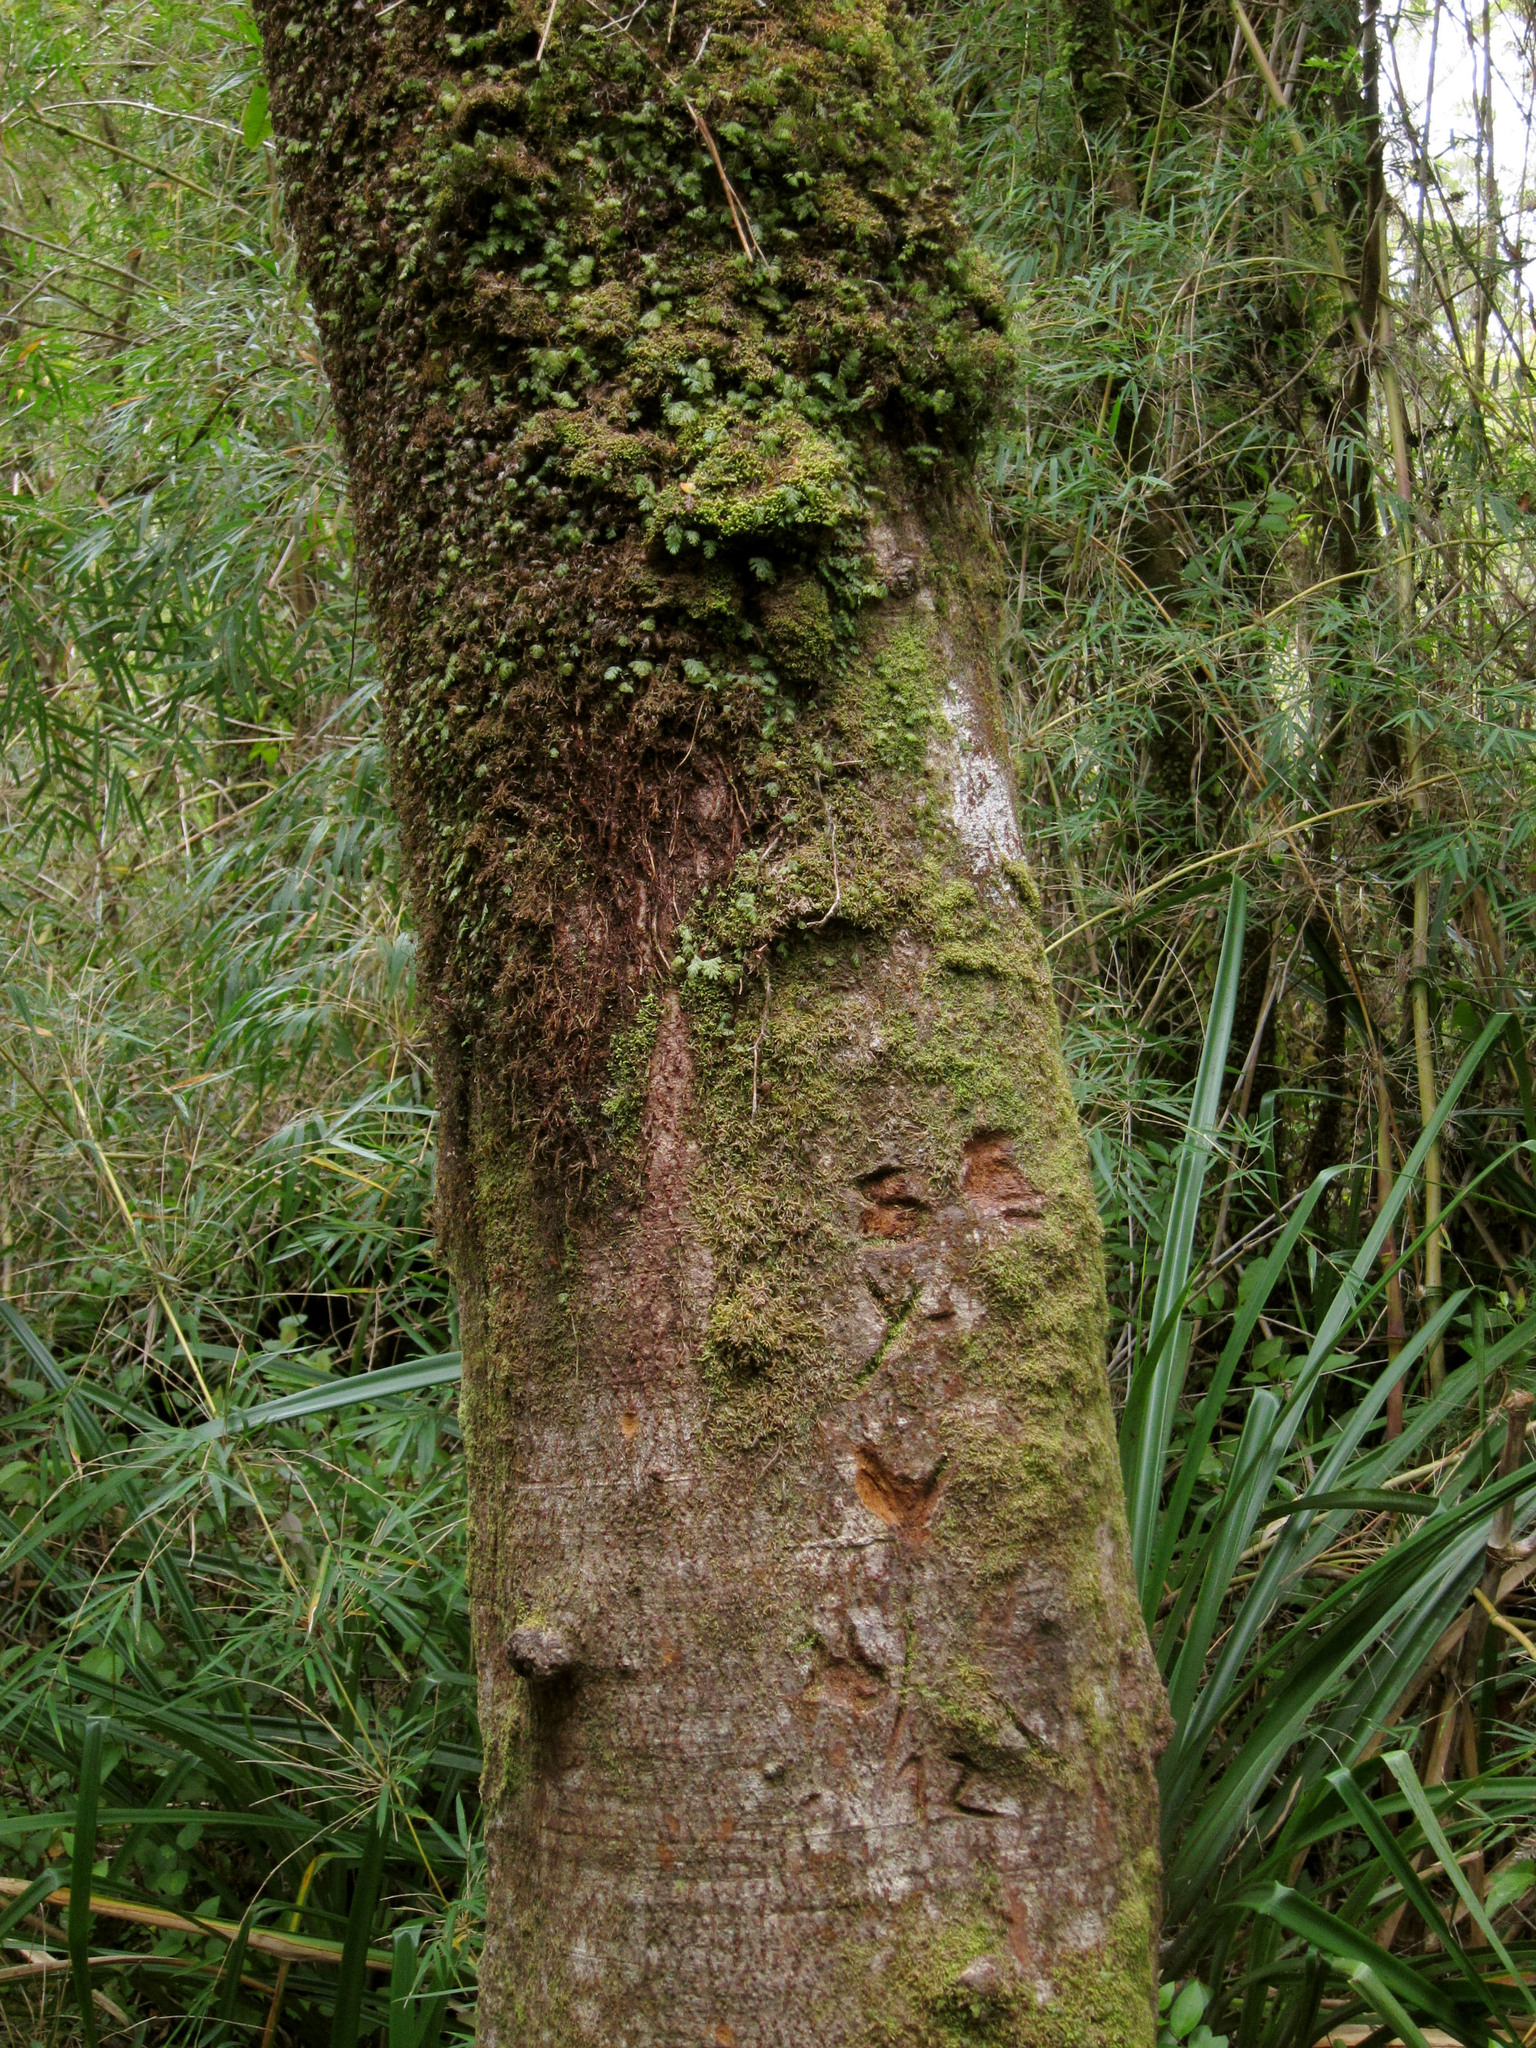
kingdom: Plantae
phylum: Tracheophyta
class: Magnoliopsida
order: Canellales
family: Winteraceae
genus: Drimys
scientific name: Drimys winteri
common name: Winter's-bark
